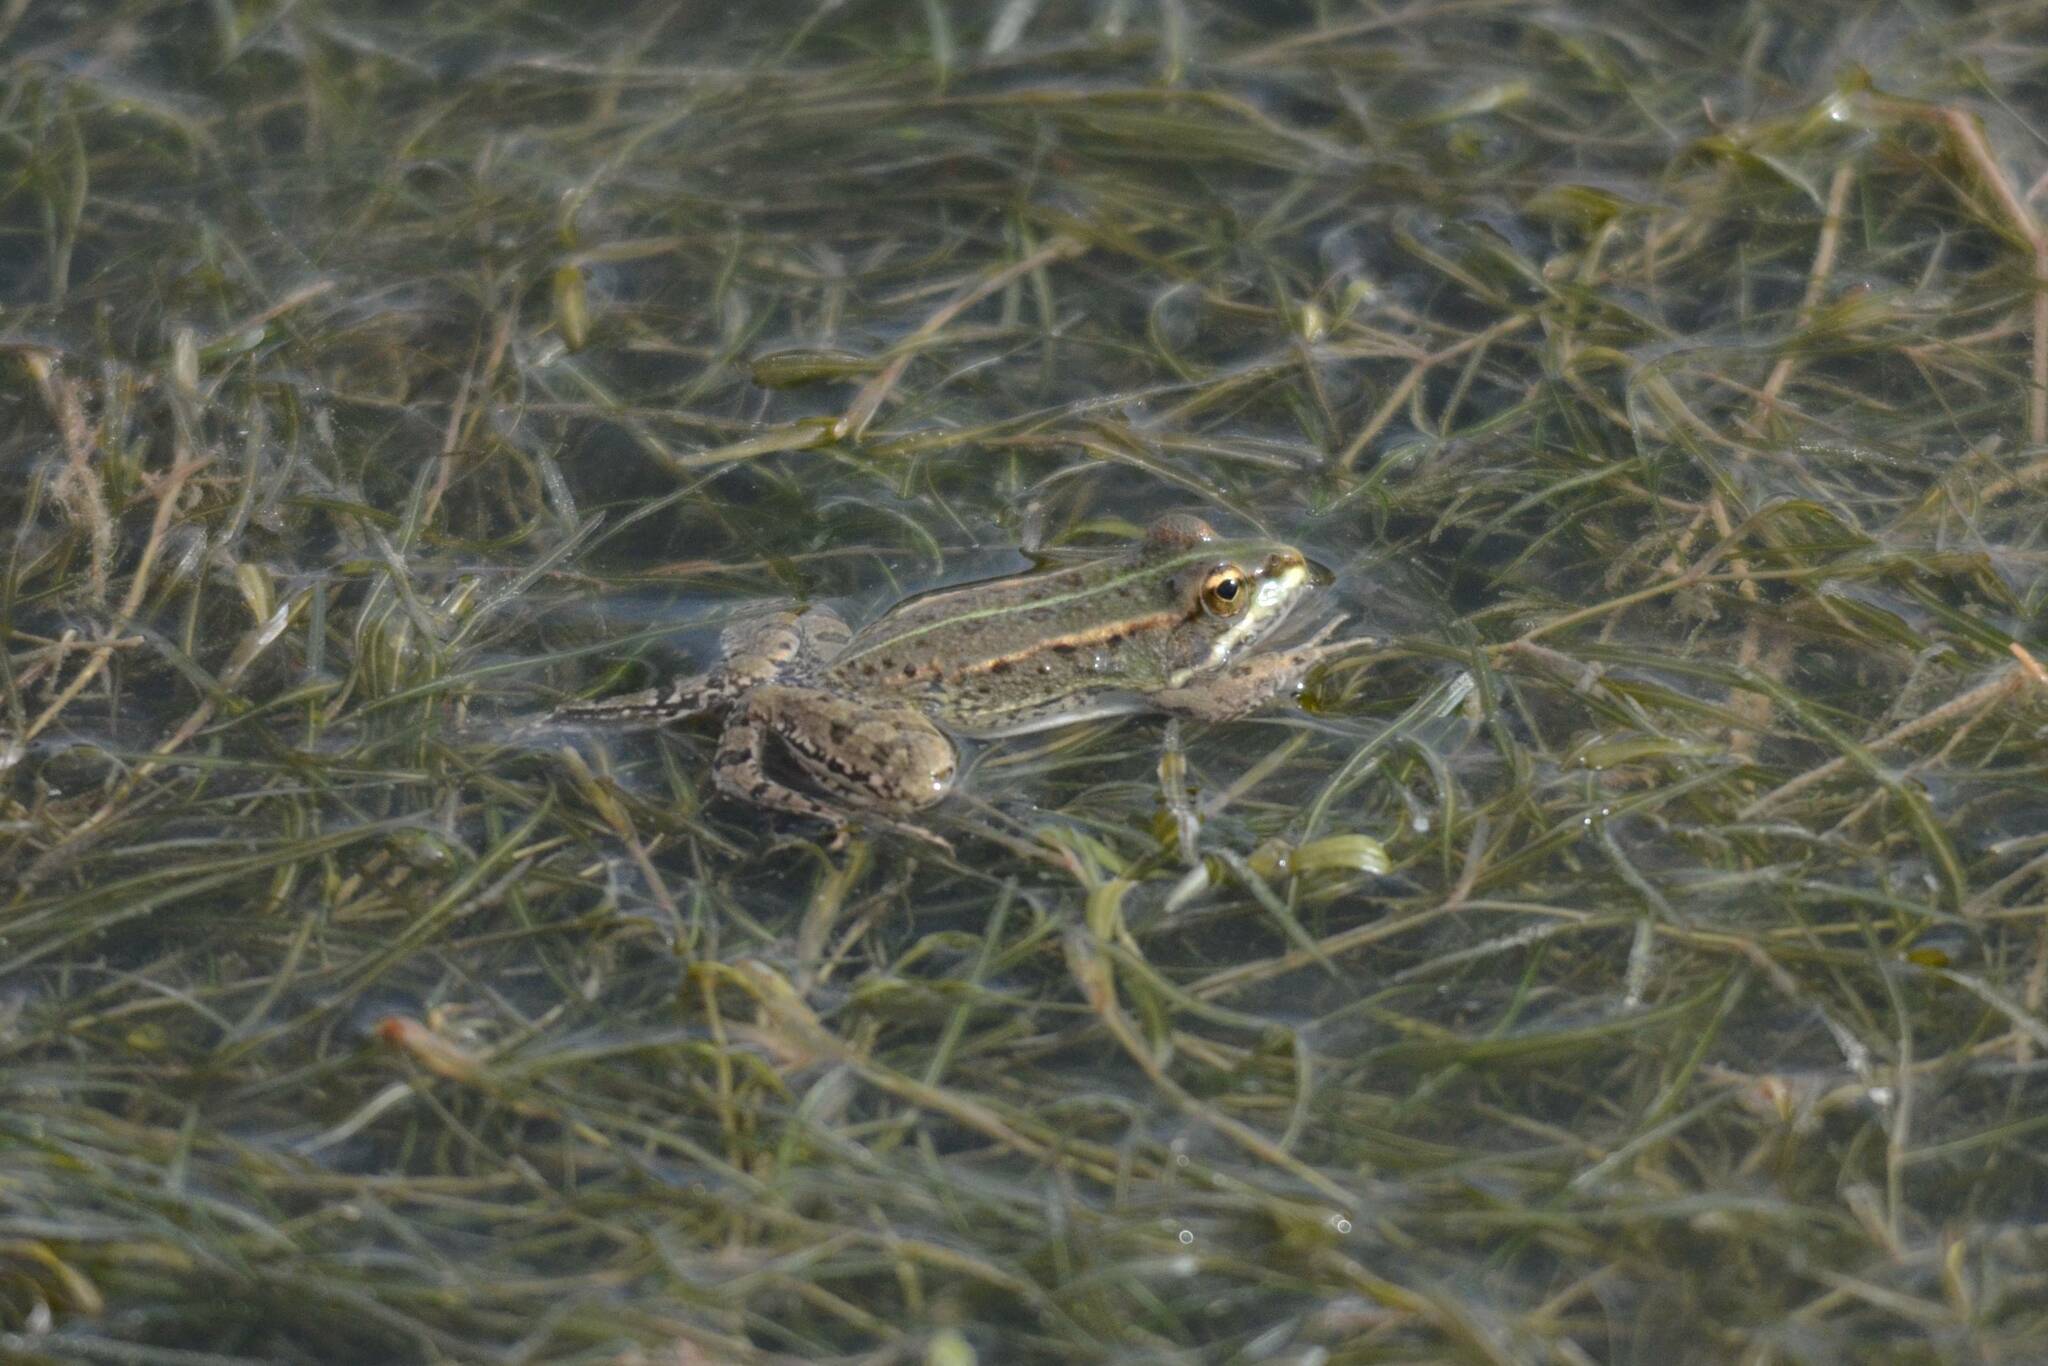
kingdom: Animalia
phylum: Chordata
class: Amphibia
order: Anura
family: Ranidae
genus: Pelophylax
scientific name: Pelophylax saharicus
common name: Sahara frog
